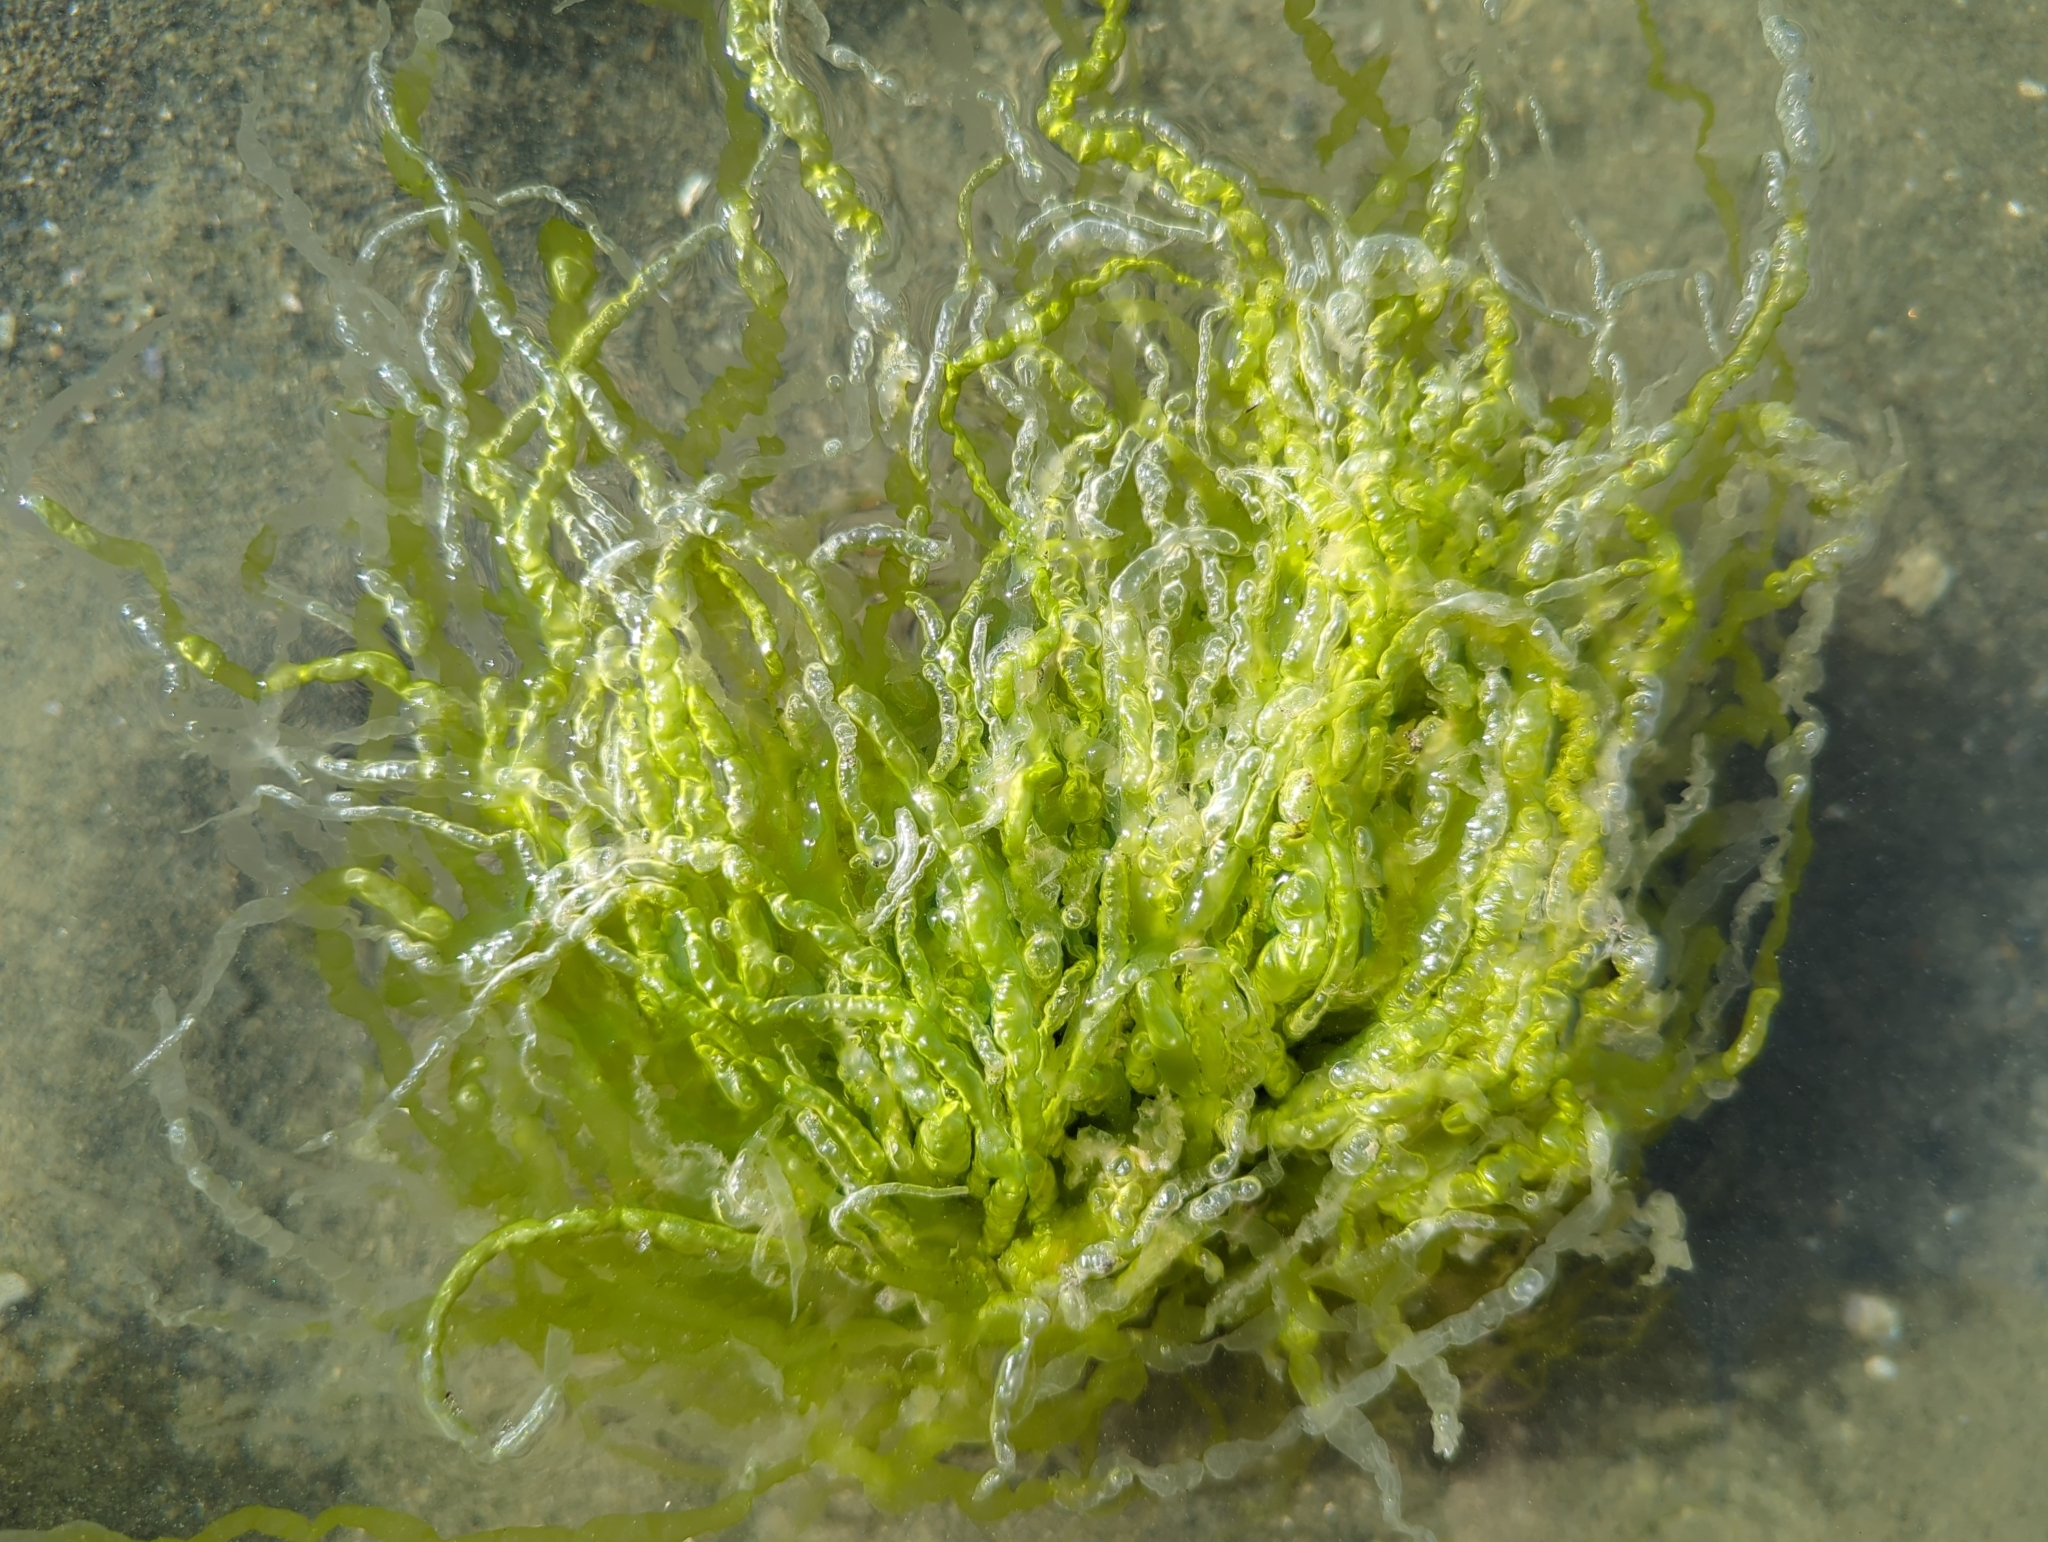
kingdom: Plantae
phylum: Chlorophyta
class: Ulvophyceae
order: Ulvales
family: Ulvaceae
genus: Ulva
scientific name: Ulva intestinalis
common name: Gut weed
